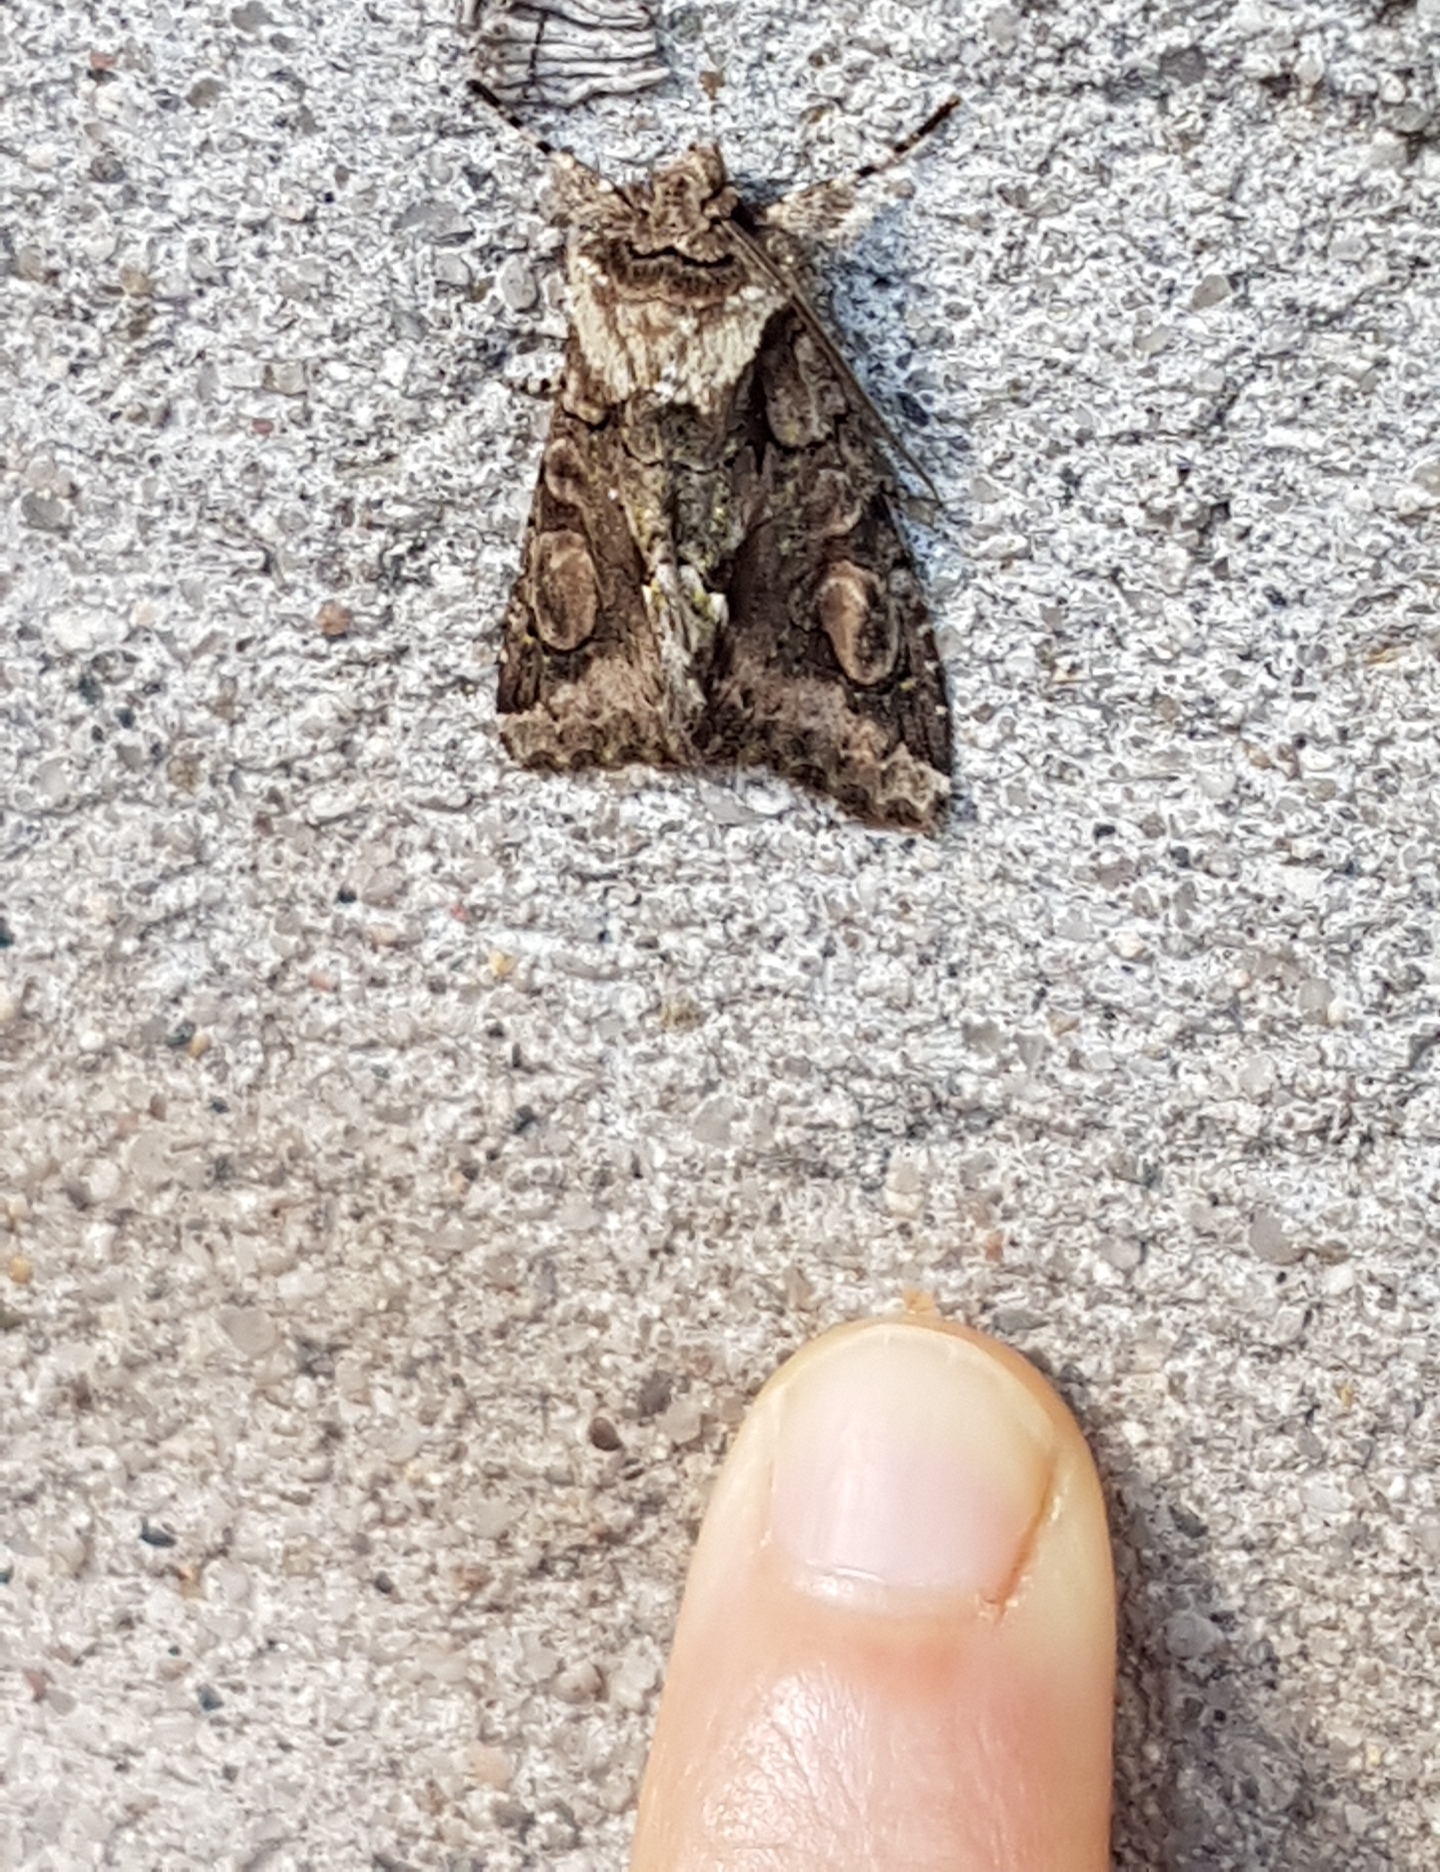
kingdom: Animalia
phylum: Arthropoda
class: Insecta
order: Lepidoptera
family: Noctuidae
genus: Allophyes
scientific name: Allophyes oxyacanthae
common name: Green-brindled crescent
